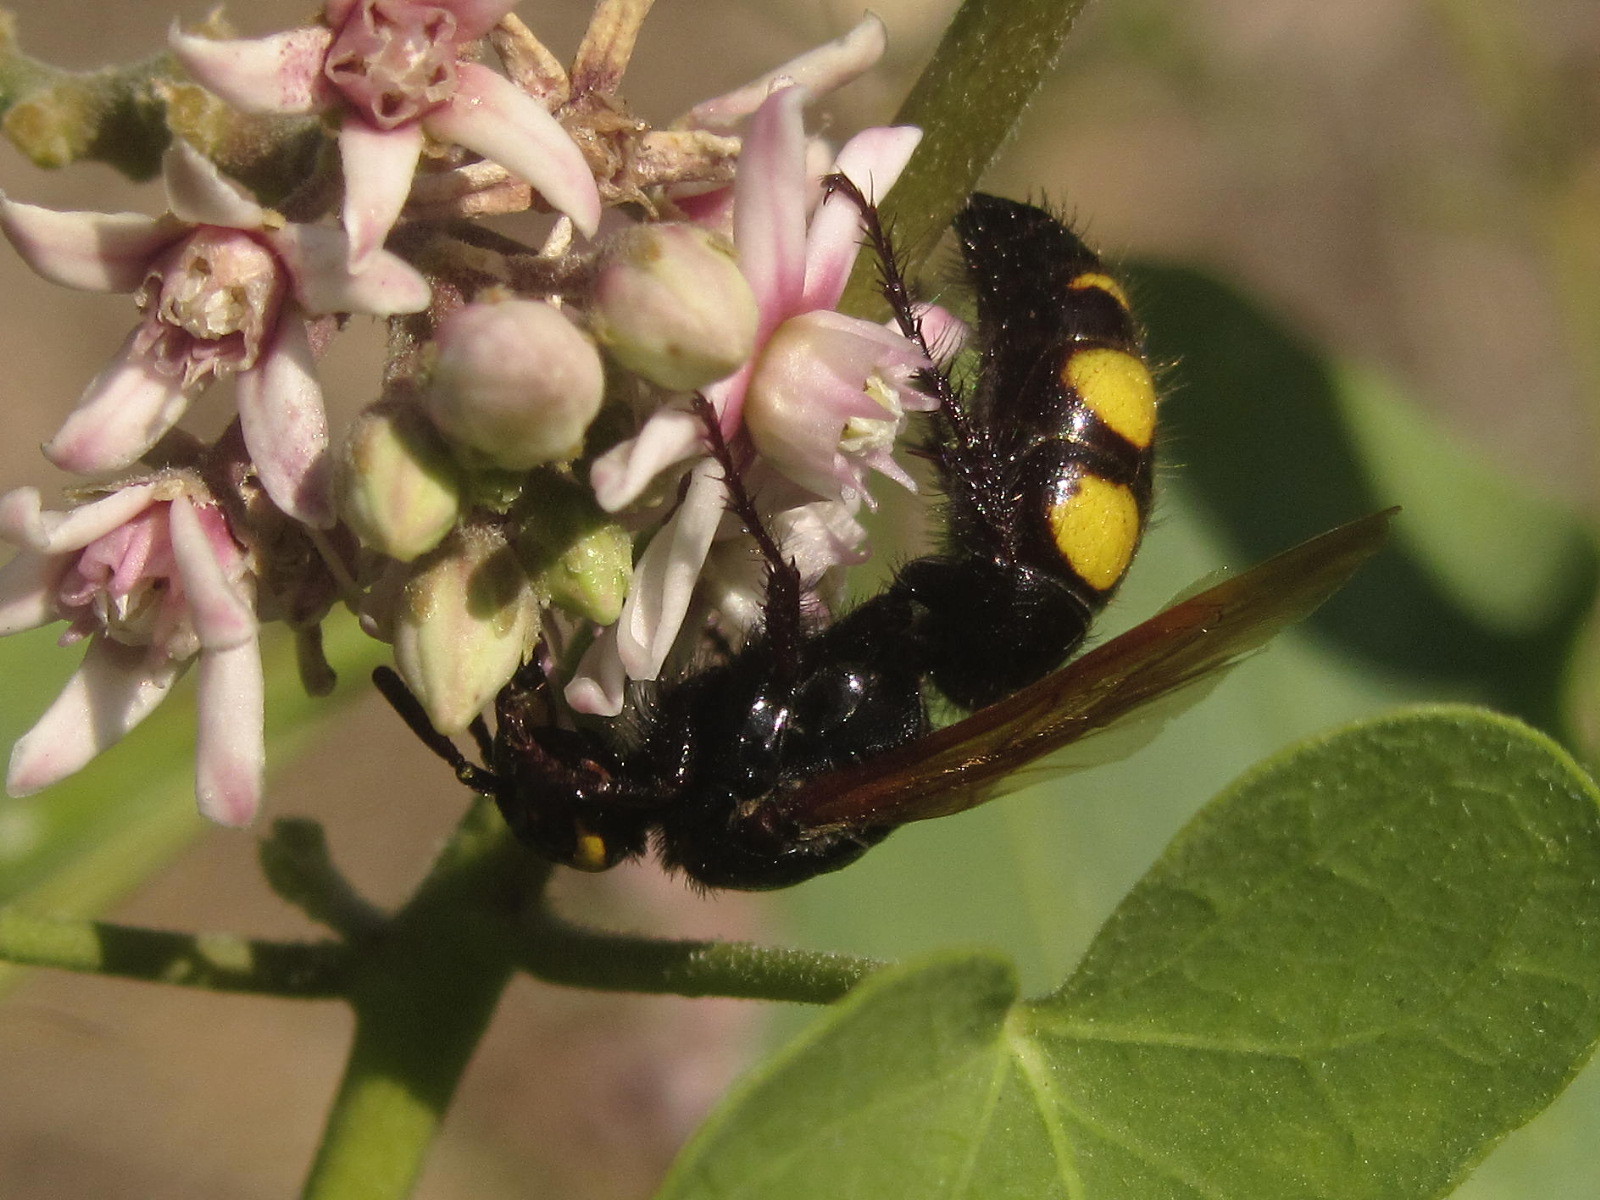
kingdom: Animalia
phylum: Arthropoda
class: Insecta
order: Hymenoptera
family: Scoliidae
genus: Scolia
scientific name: Scolia hirta
